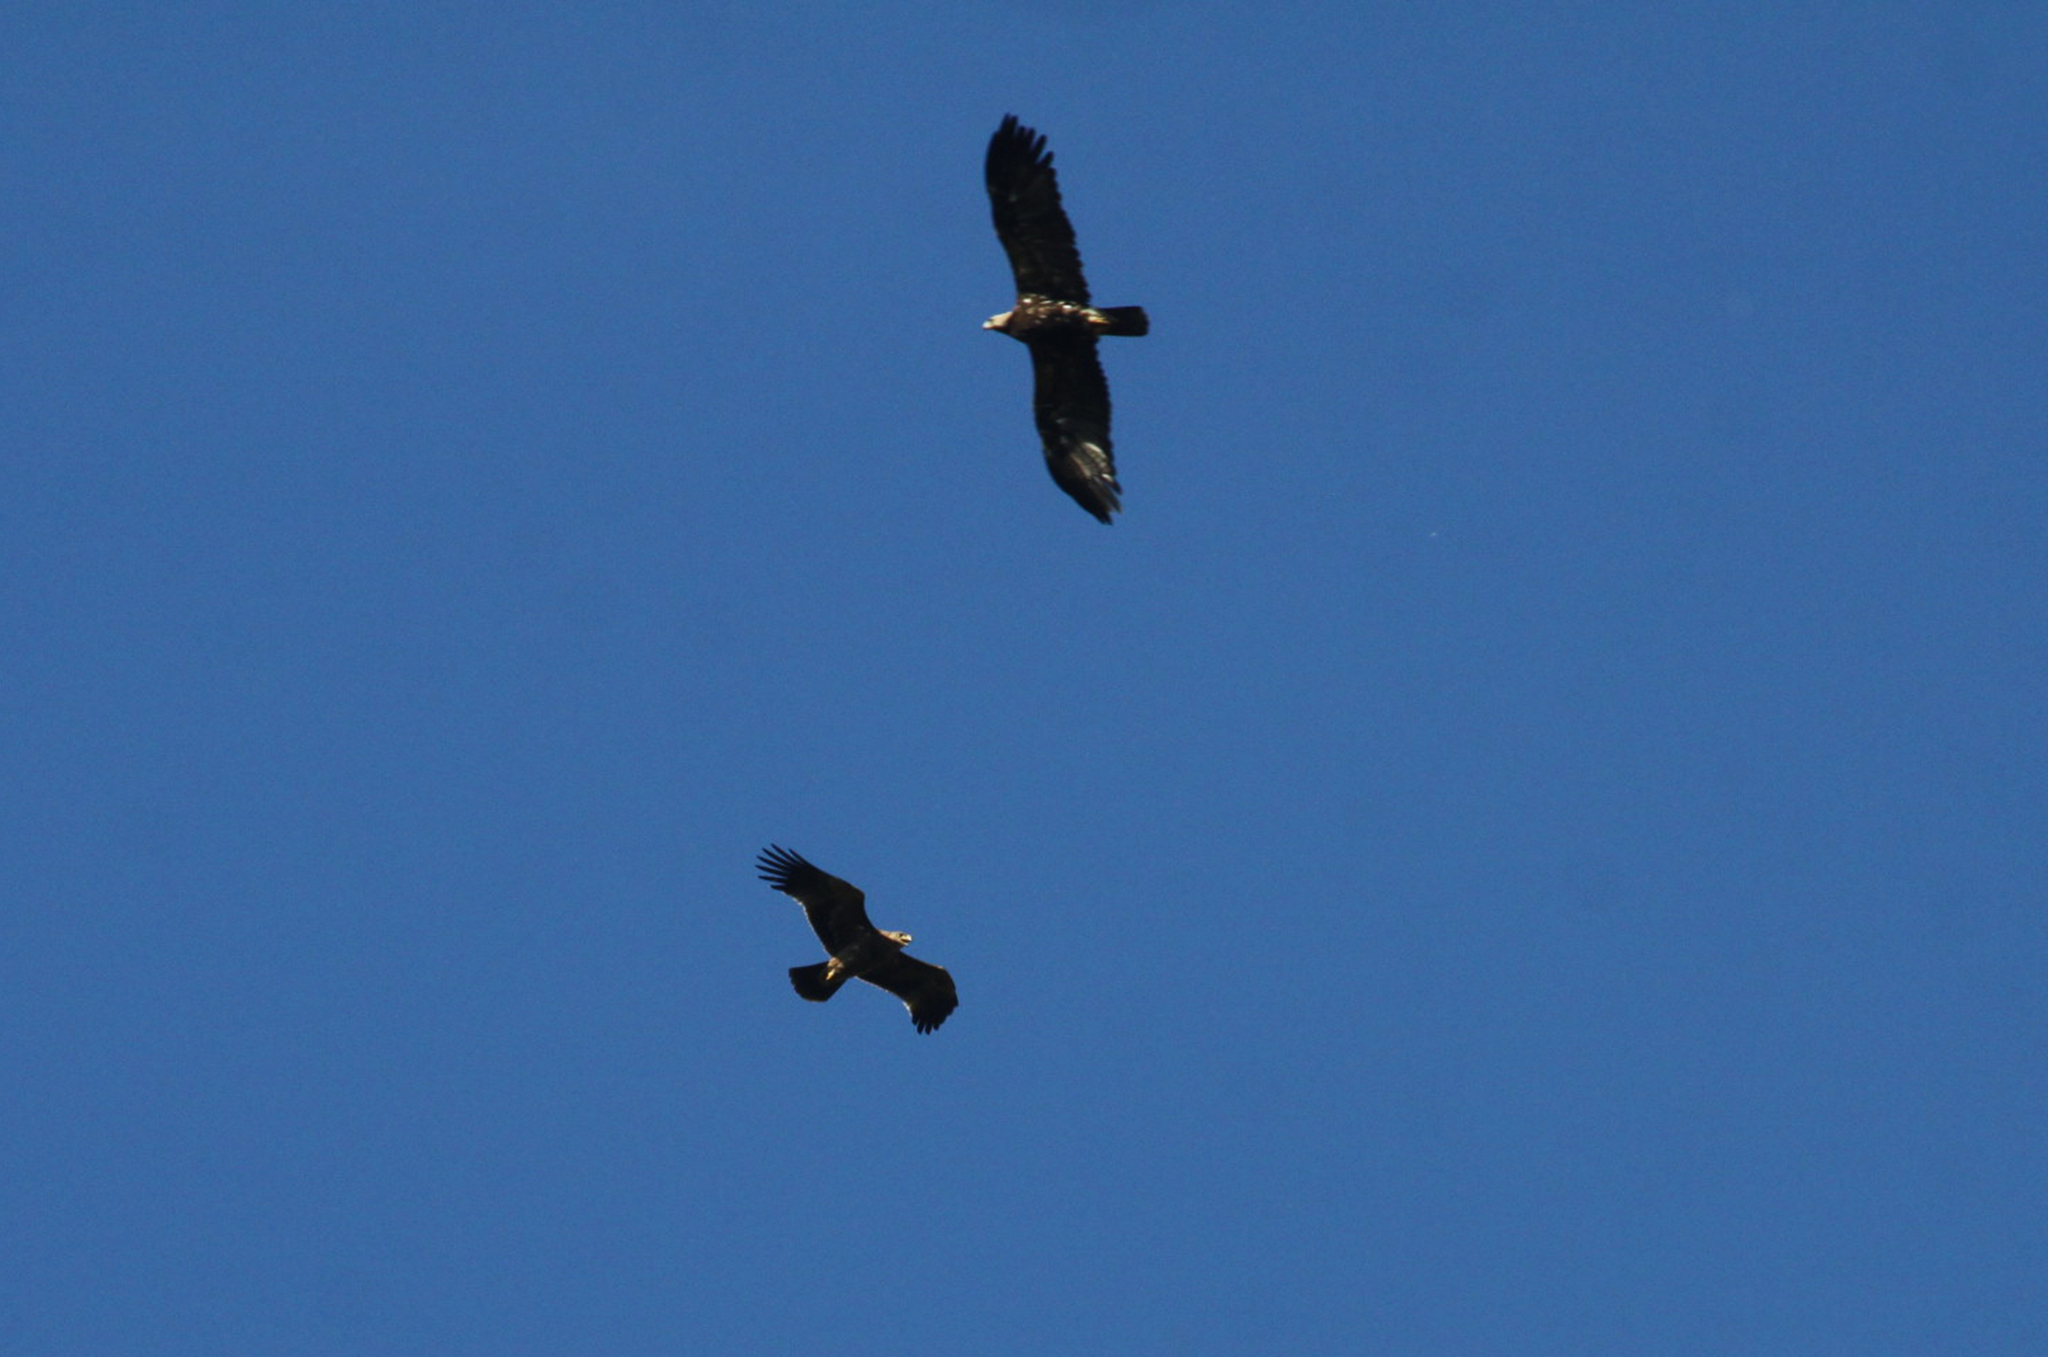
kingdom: Animalia
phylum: Chordata
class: Aves
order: Accipitriformes
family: Accipitridae
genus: Aquila
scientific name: Aquila heliaca
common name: Eastern imperial eagle
